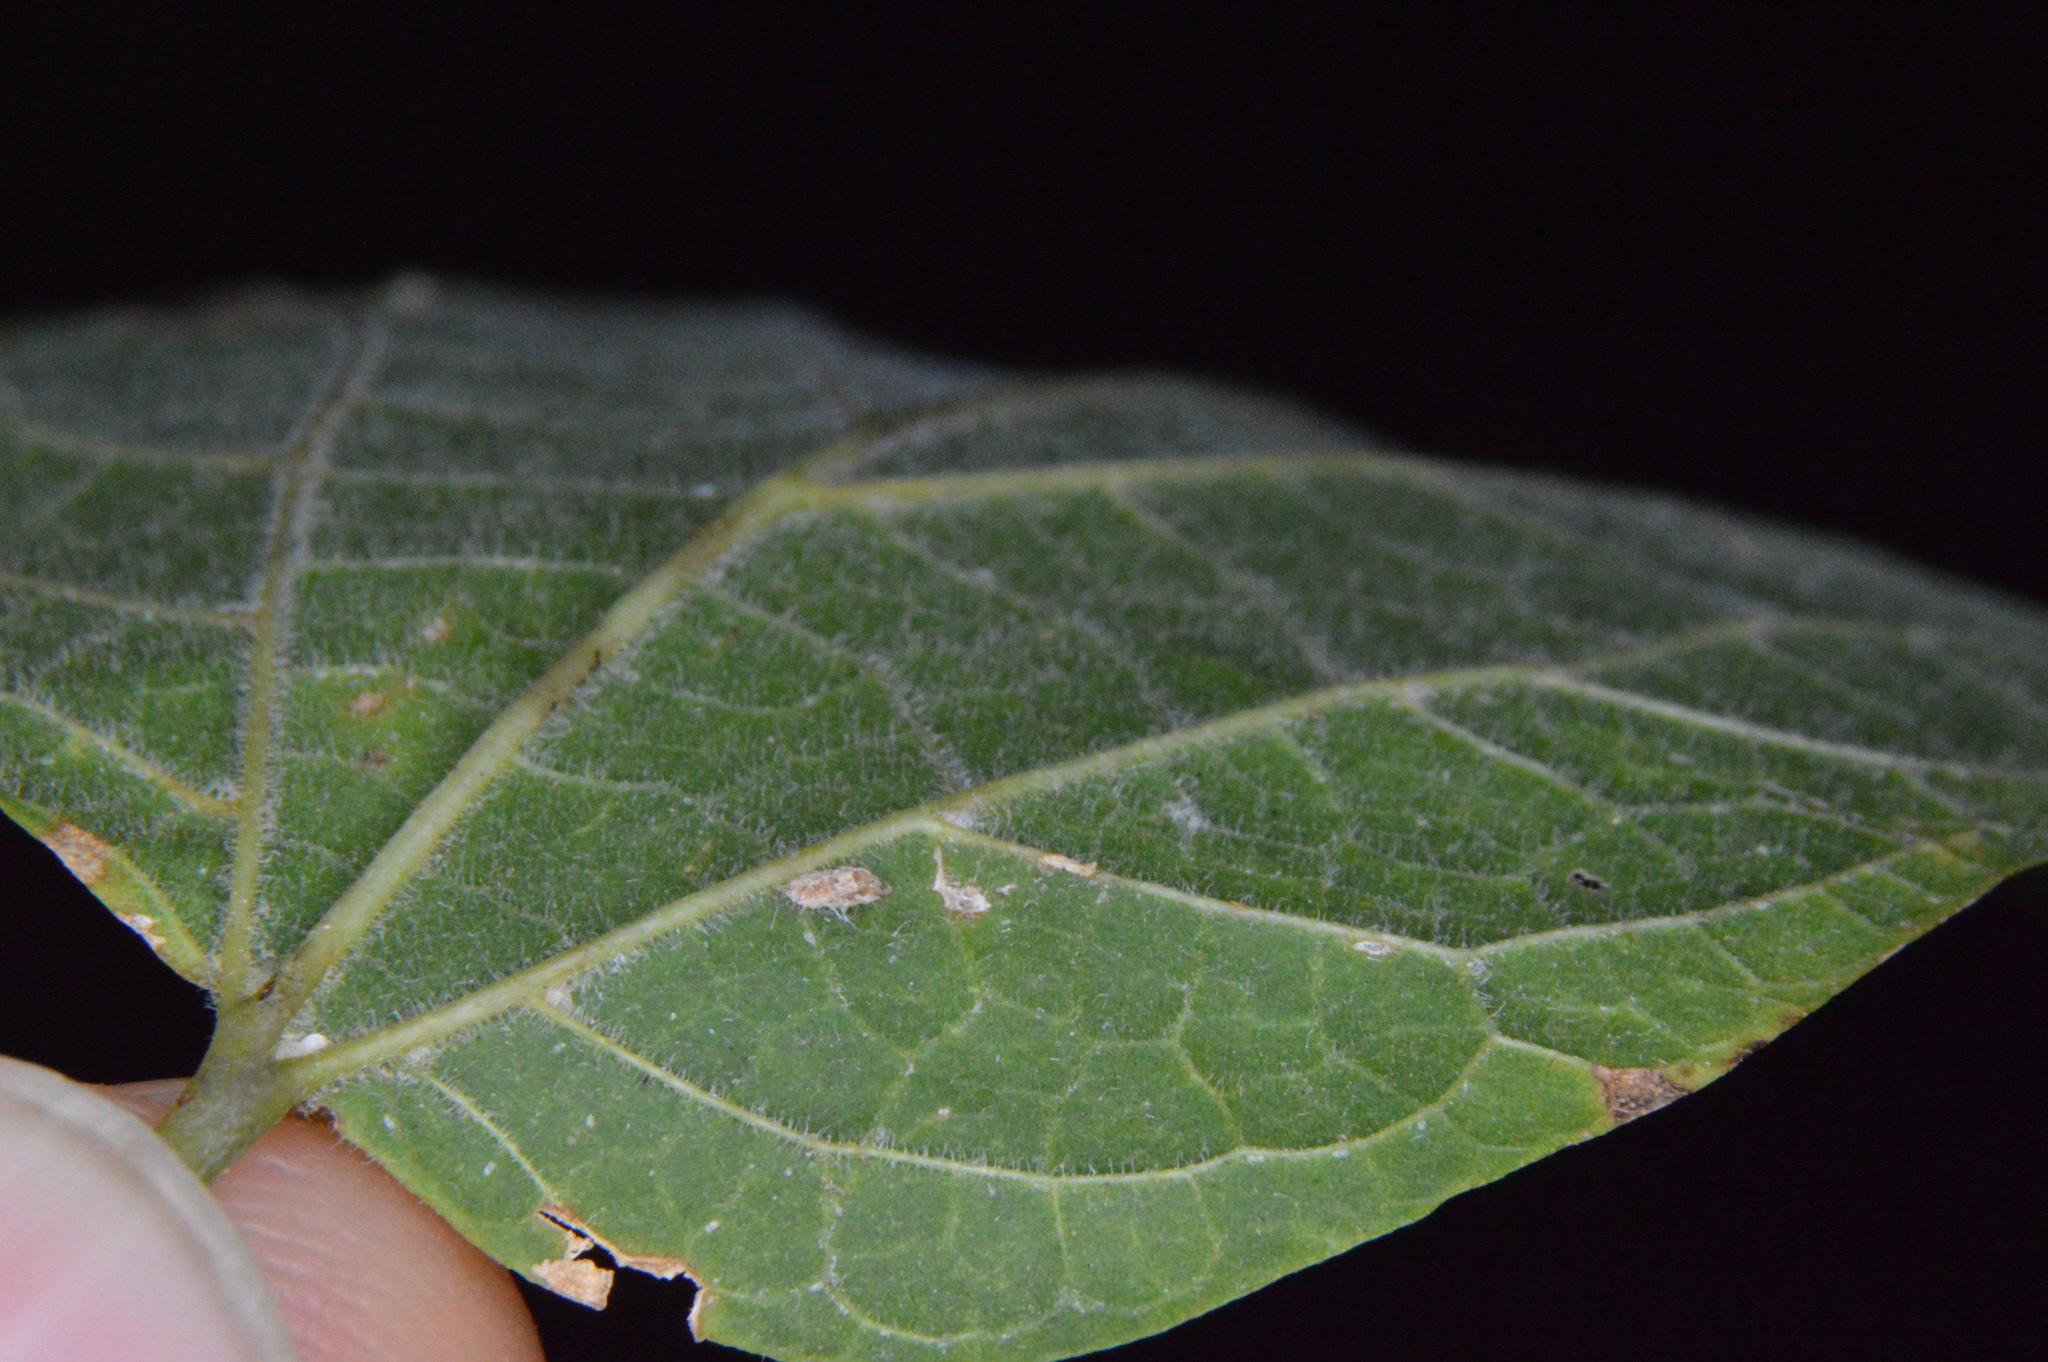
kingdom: Animalia
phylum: Arthropoda
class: Insecta
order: Diptera
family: Cecidomyiidae
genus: Celticecis
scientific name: Celticecis supina
